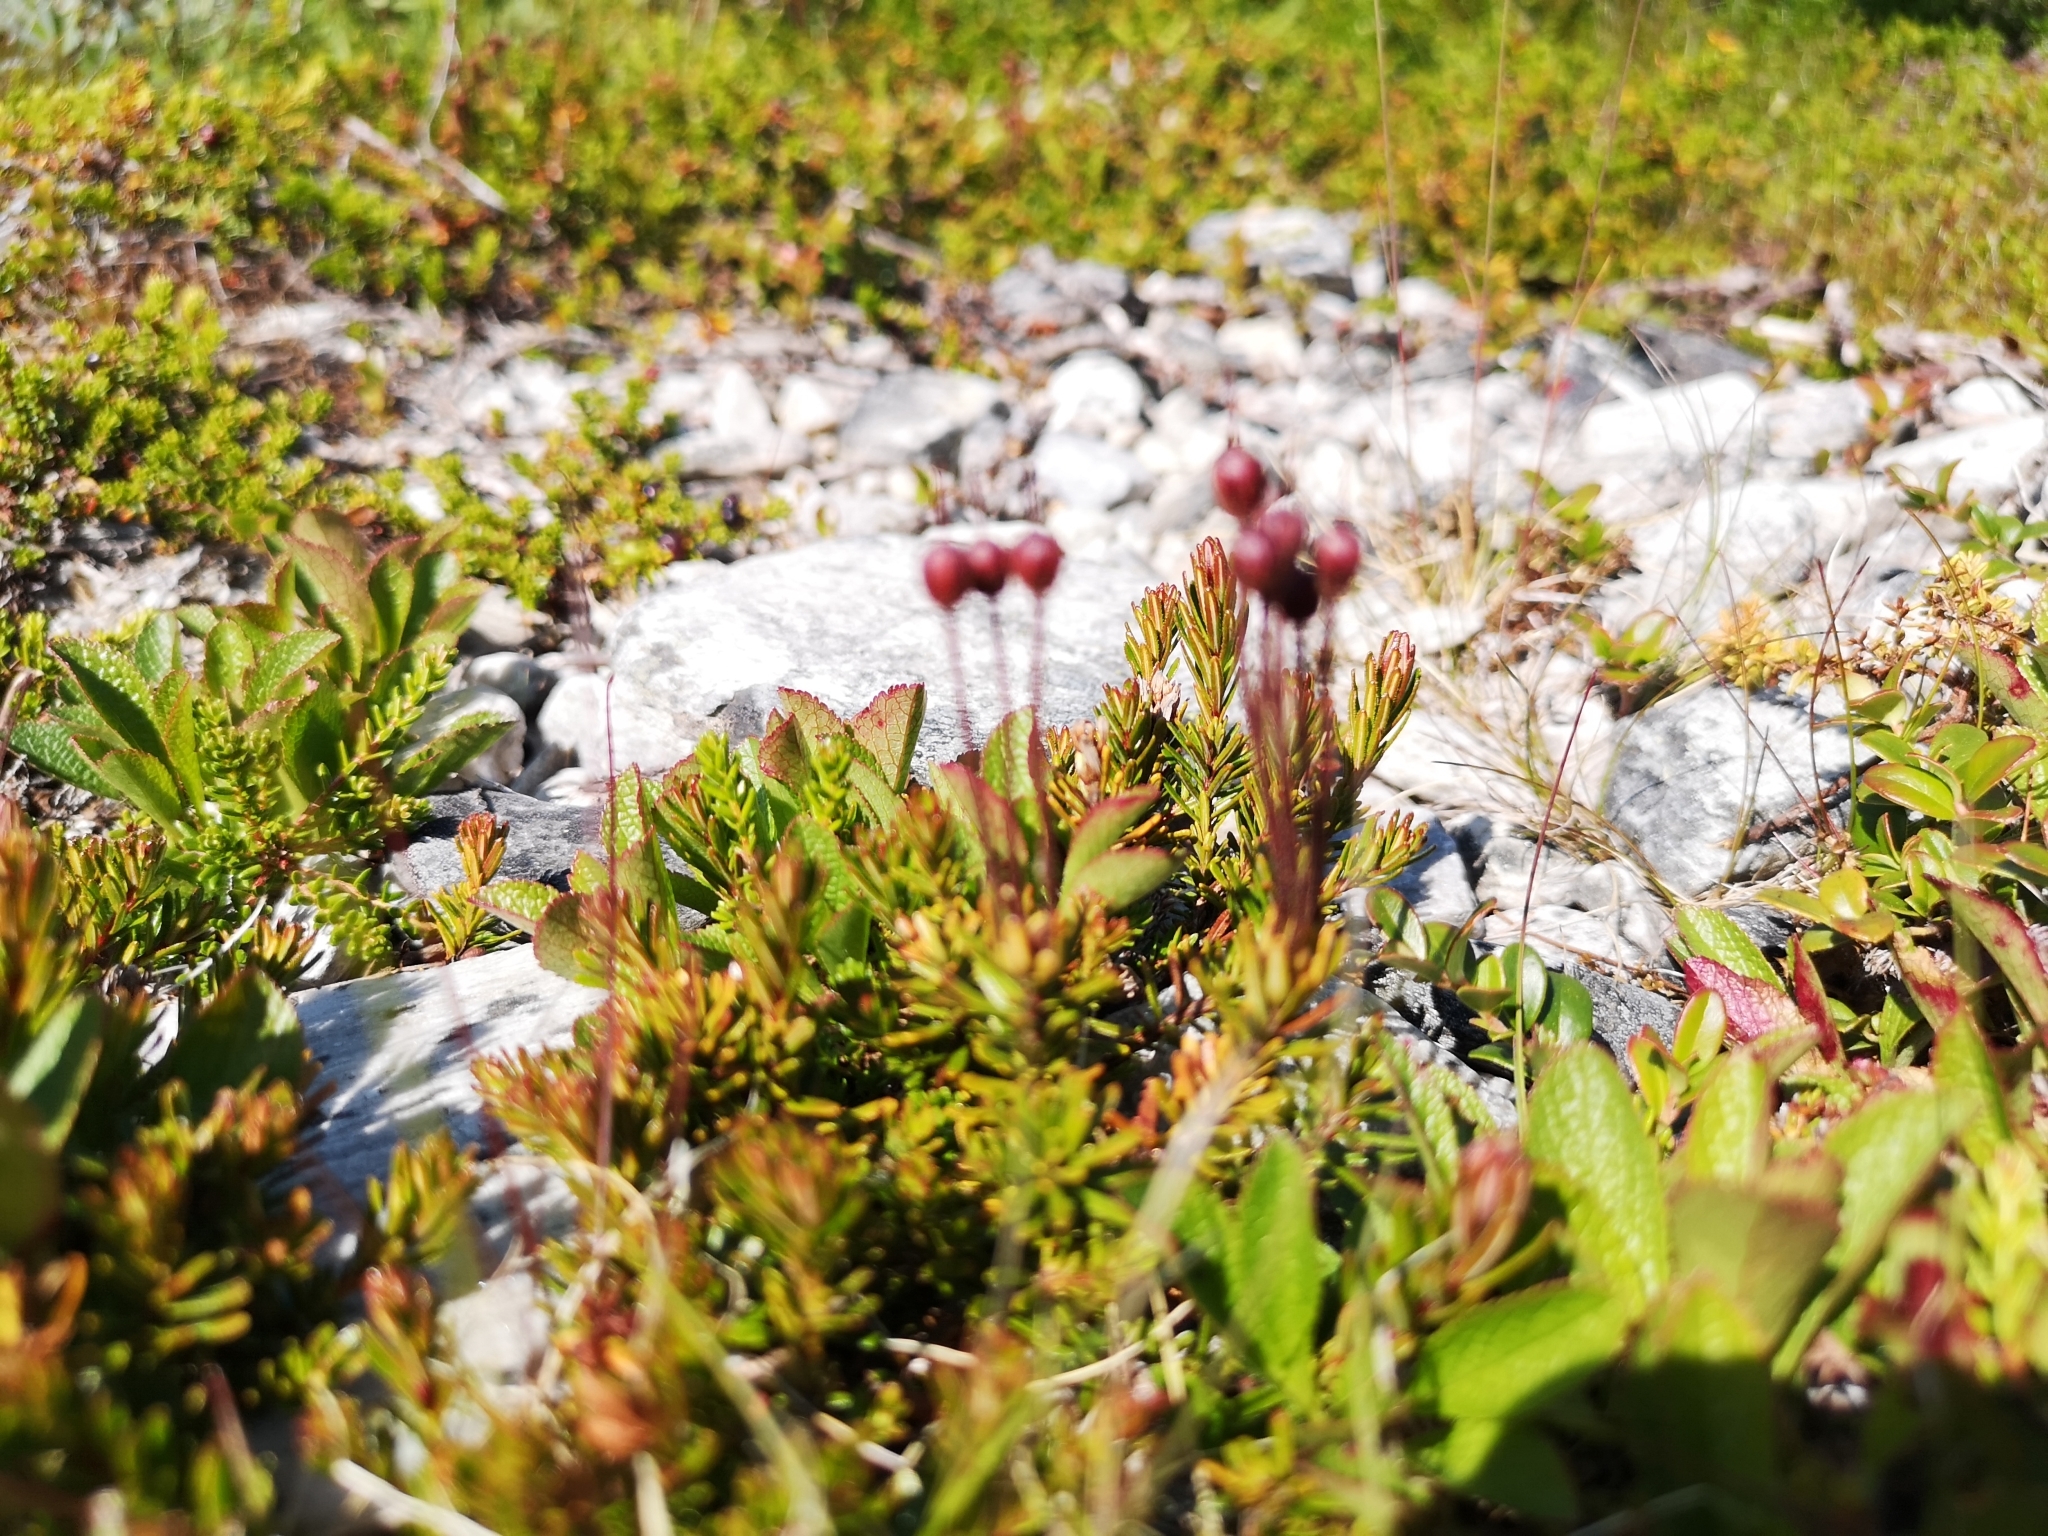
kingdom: Plantae
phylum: Tracheophyta
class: Magnoliopsida
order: Ericales
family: Ericaceae
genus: Phyllodoce
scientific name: Phyllodoce caerulea
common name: Blue heath
